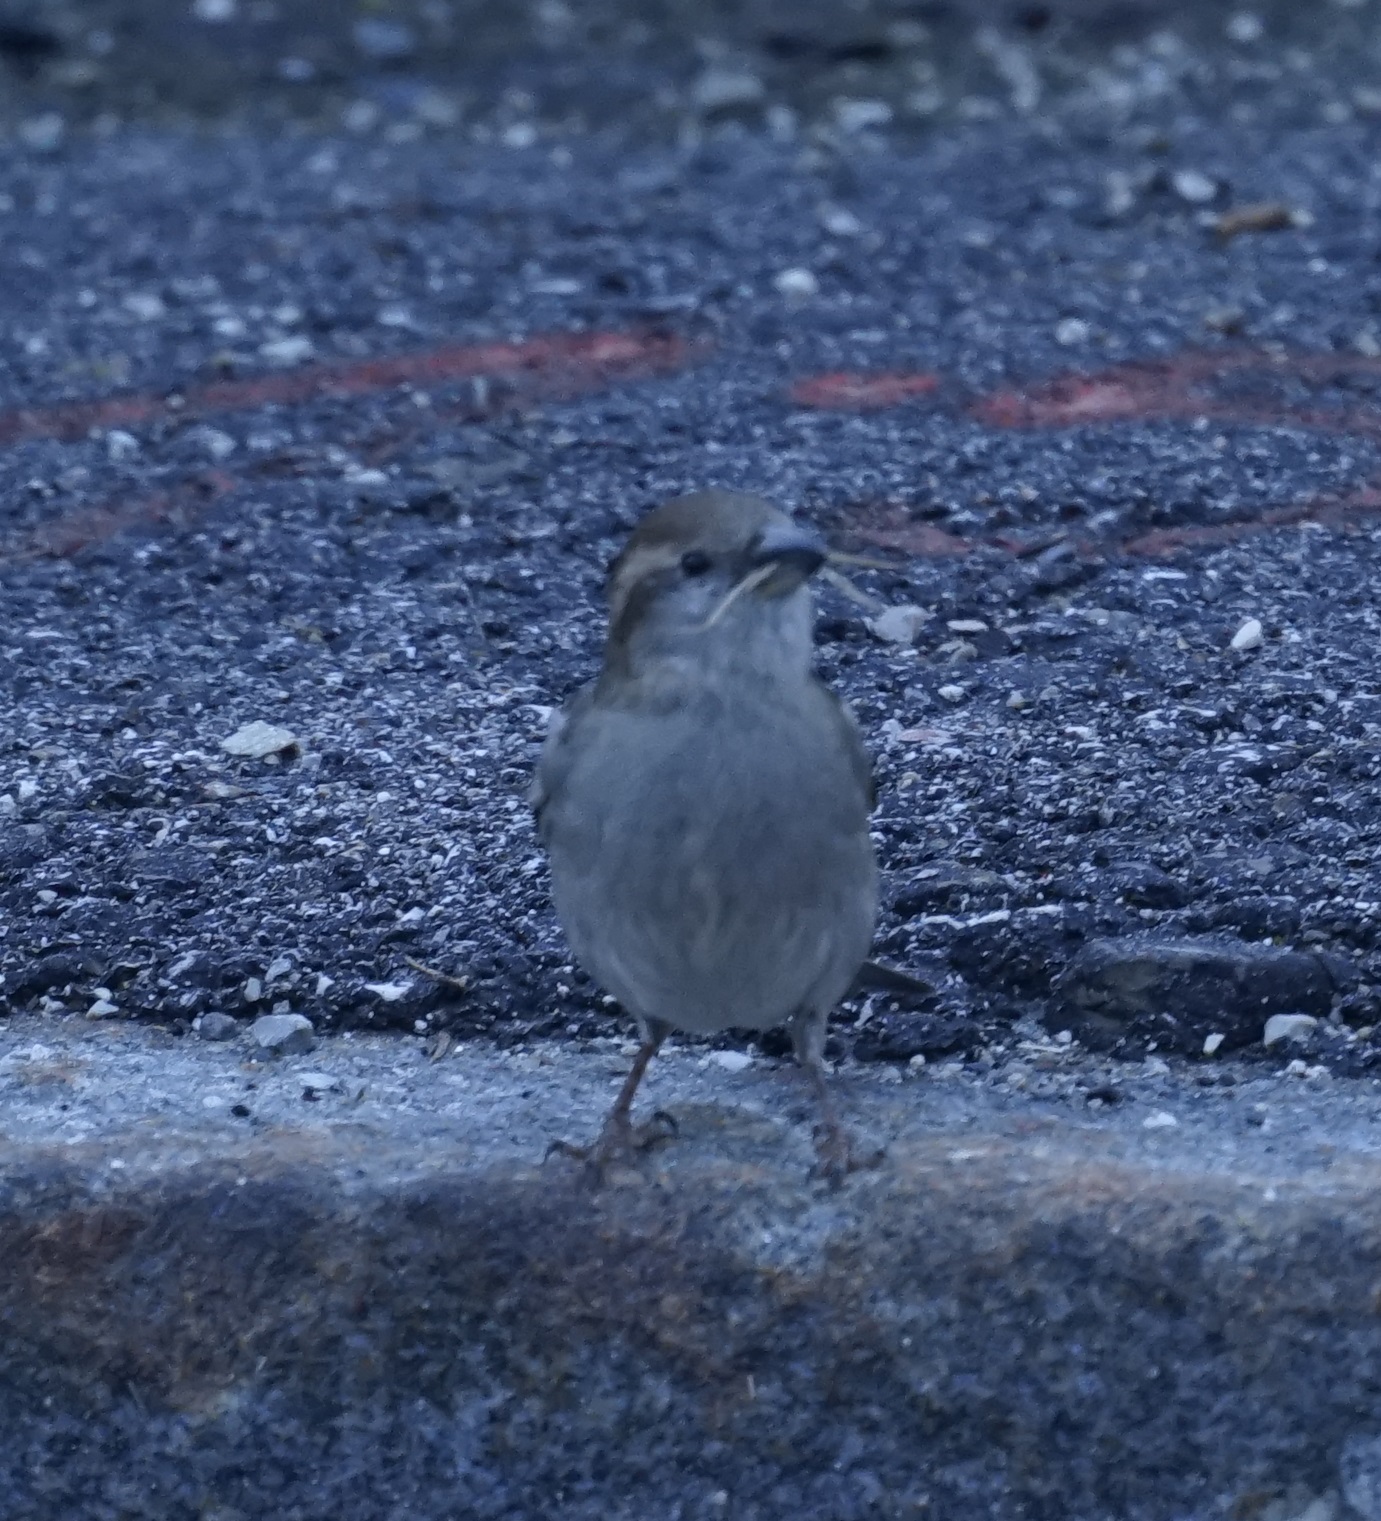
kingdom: Animalia
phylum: Chordata
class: Aves
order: Passeriformes
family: Passeridae
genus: Passer
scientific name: Passer domesticus
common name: House sparrow
